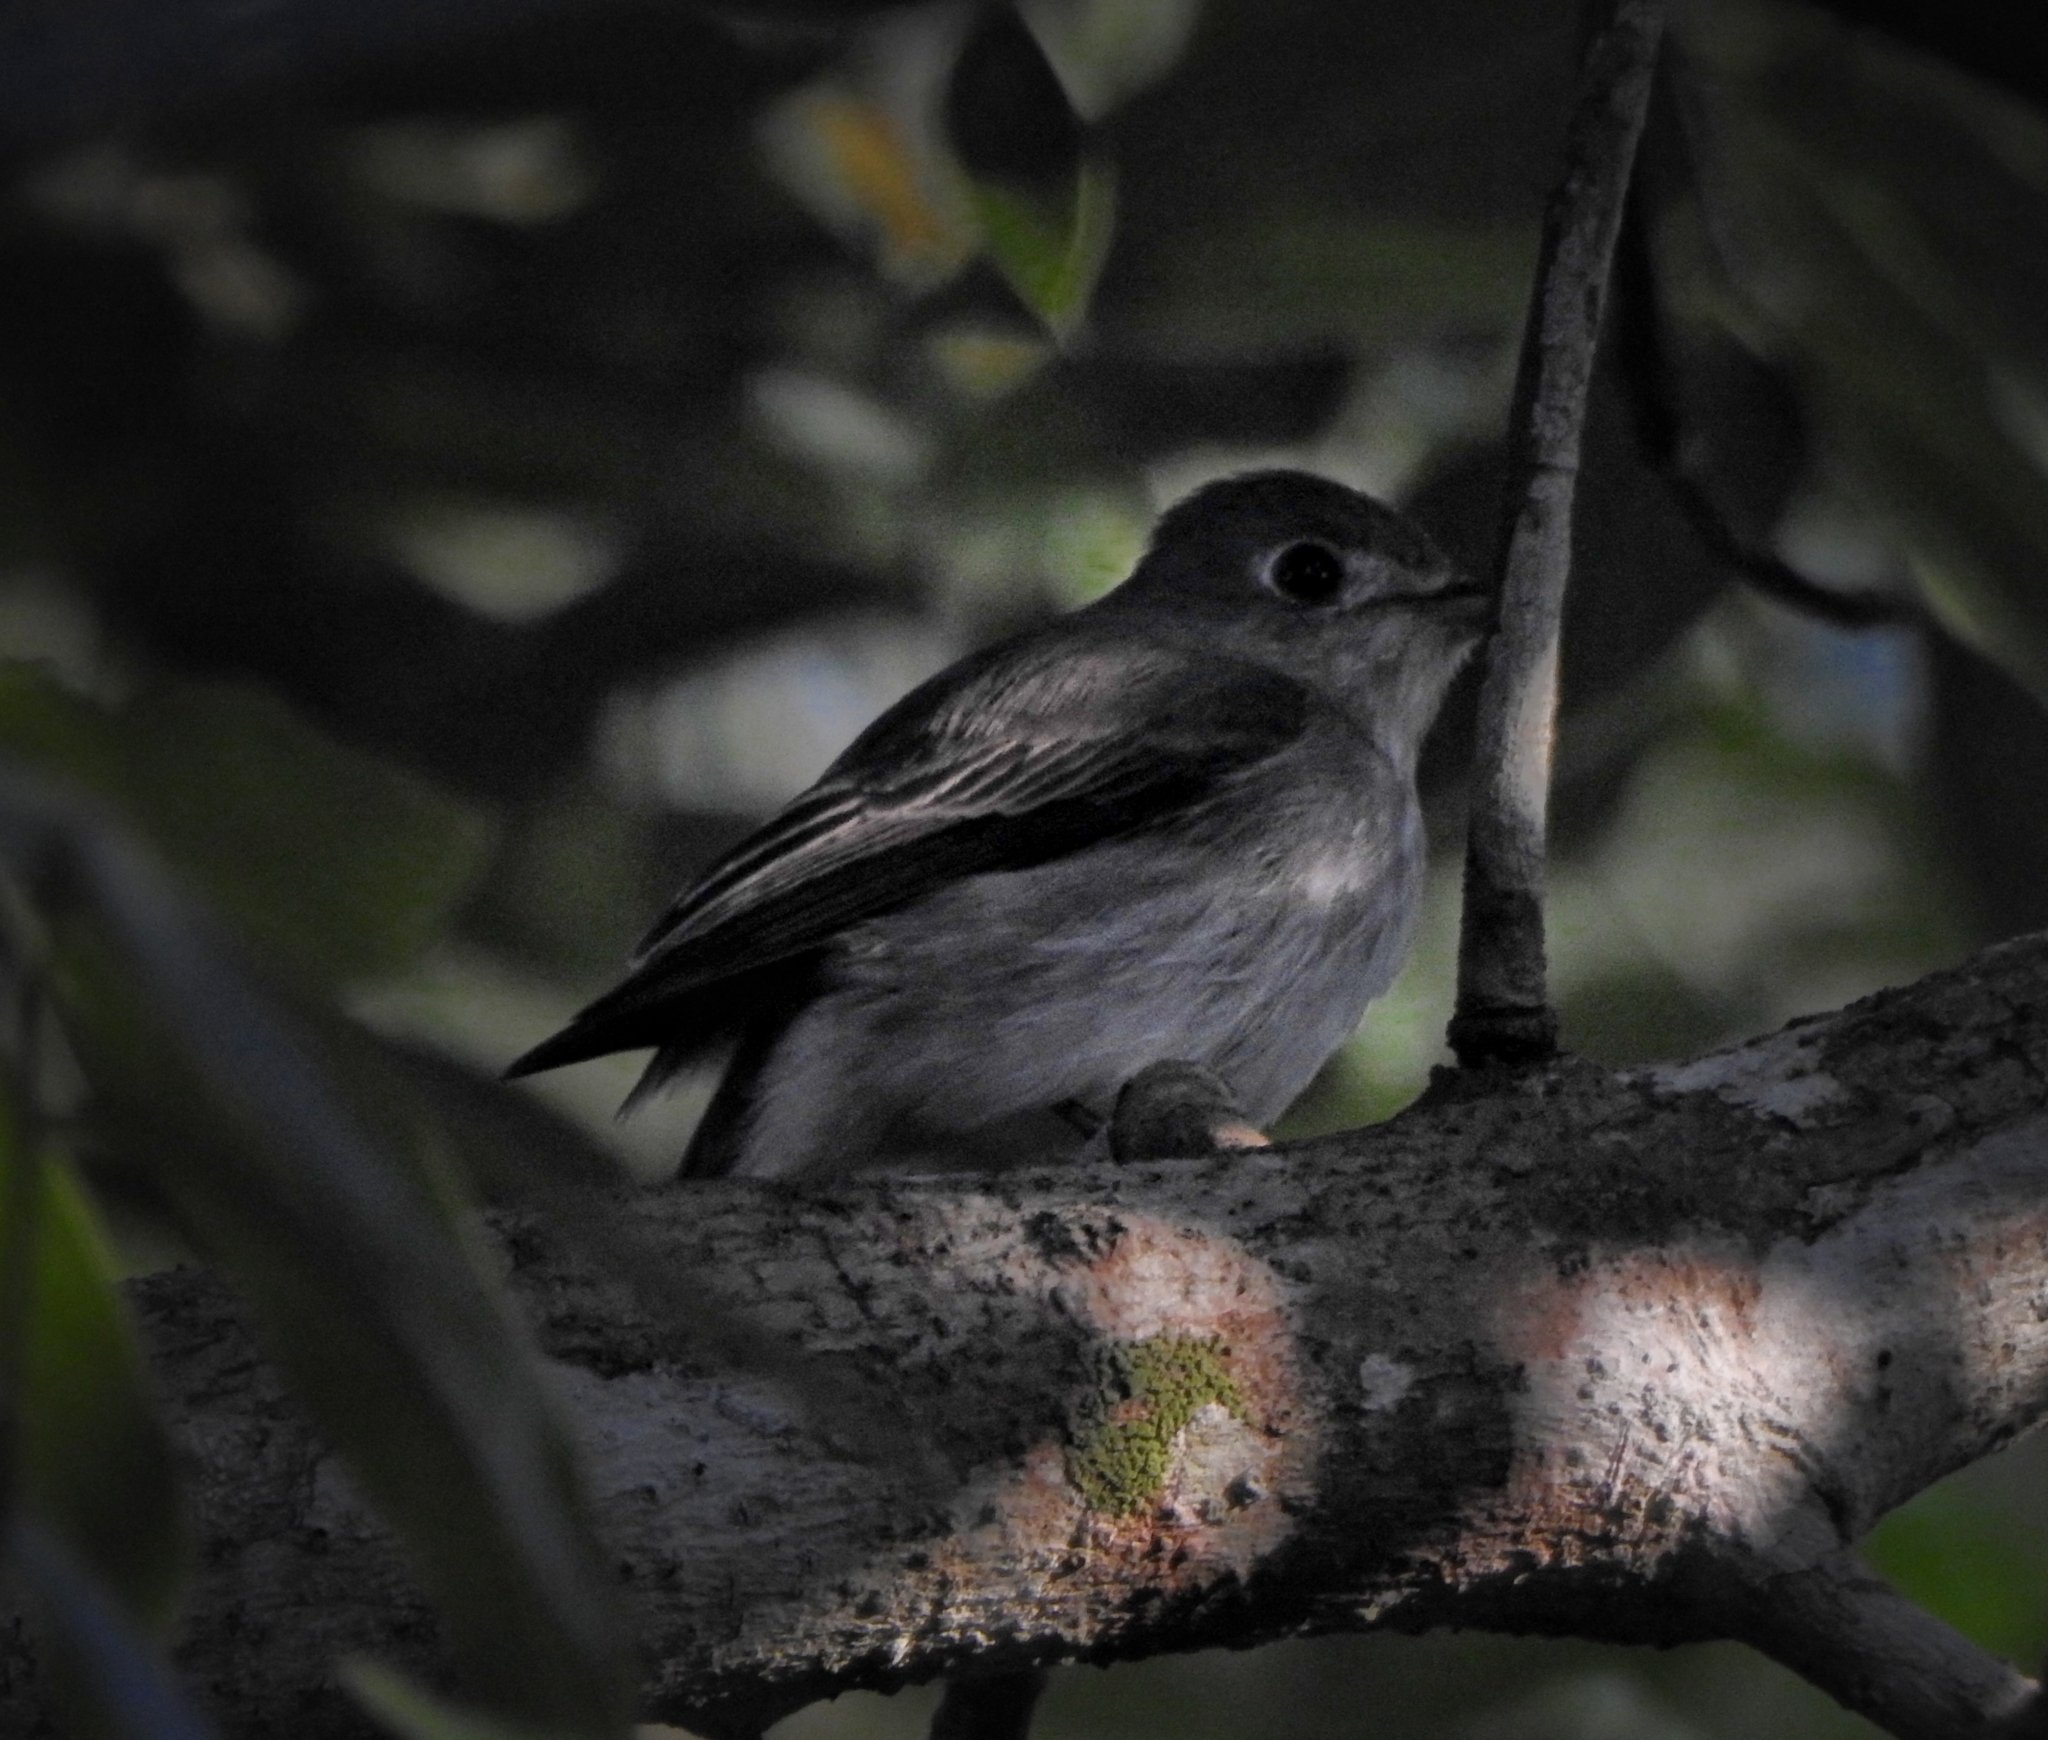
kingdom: Animalia
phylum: Chordata
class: Aves
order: Passeriformes
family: Muscicapidae
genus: Muscicapa
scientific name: Muscicapa latirostris
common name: Asian brown flycatcher
